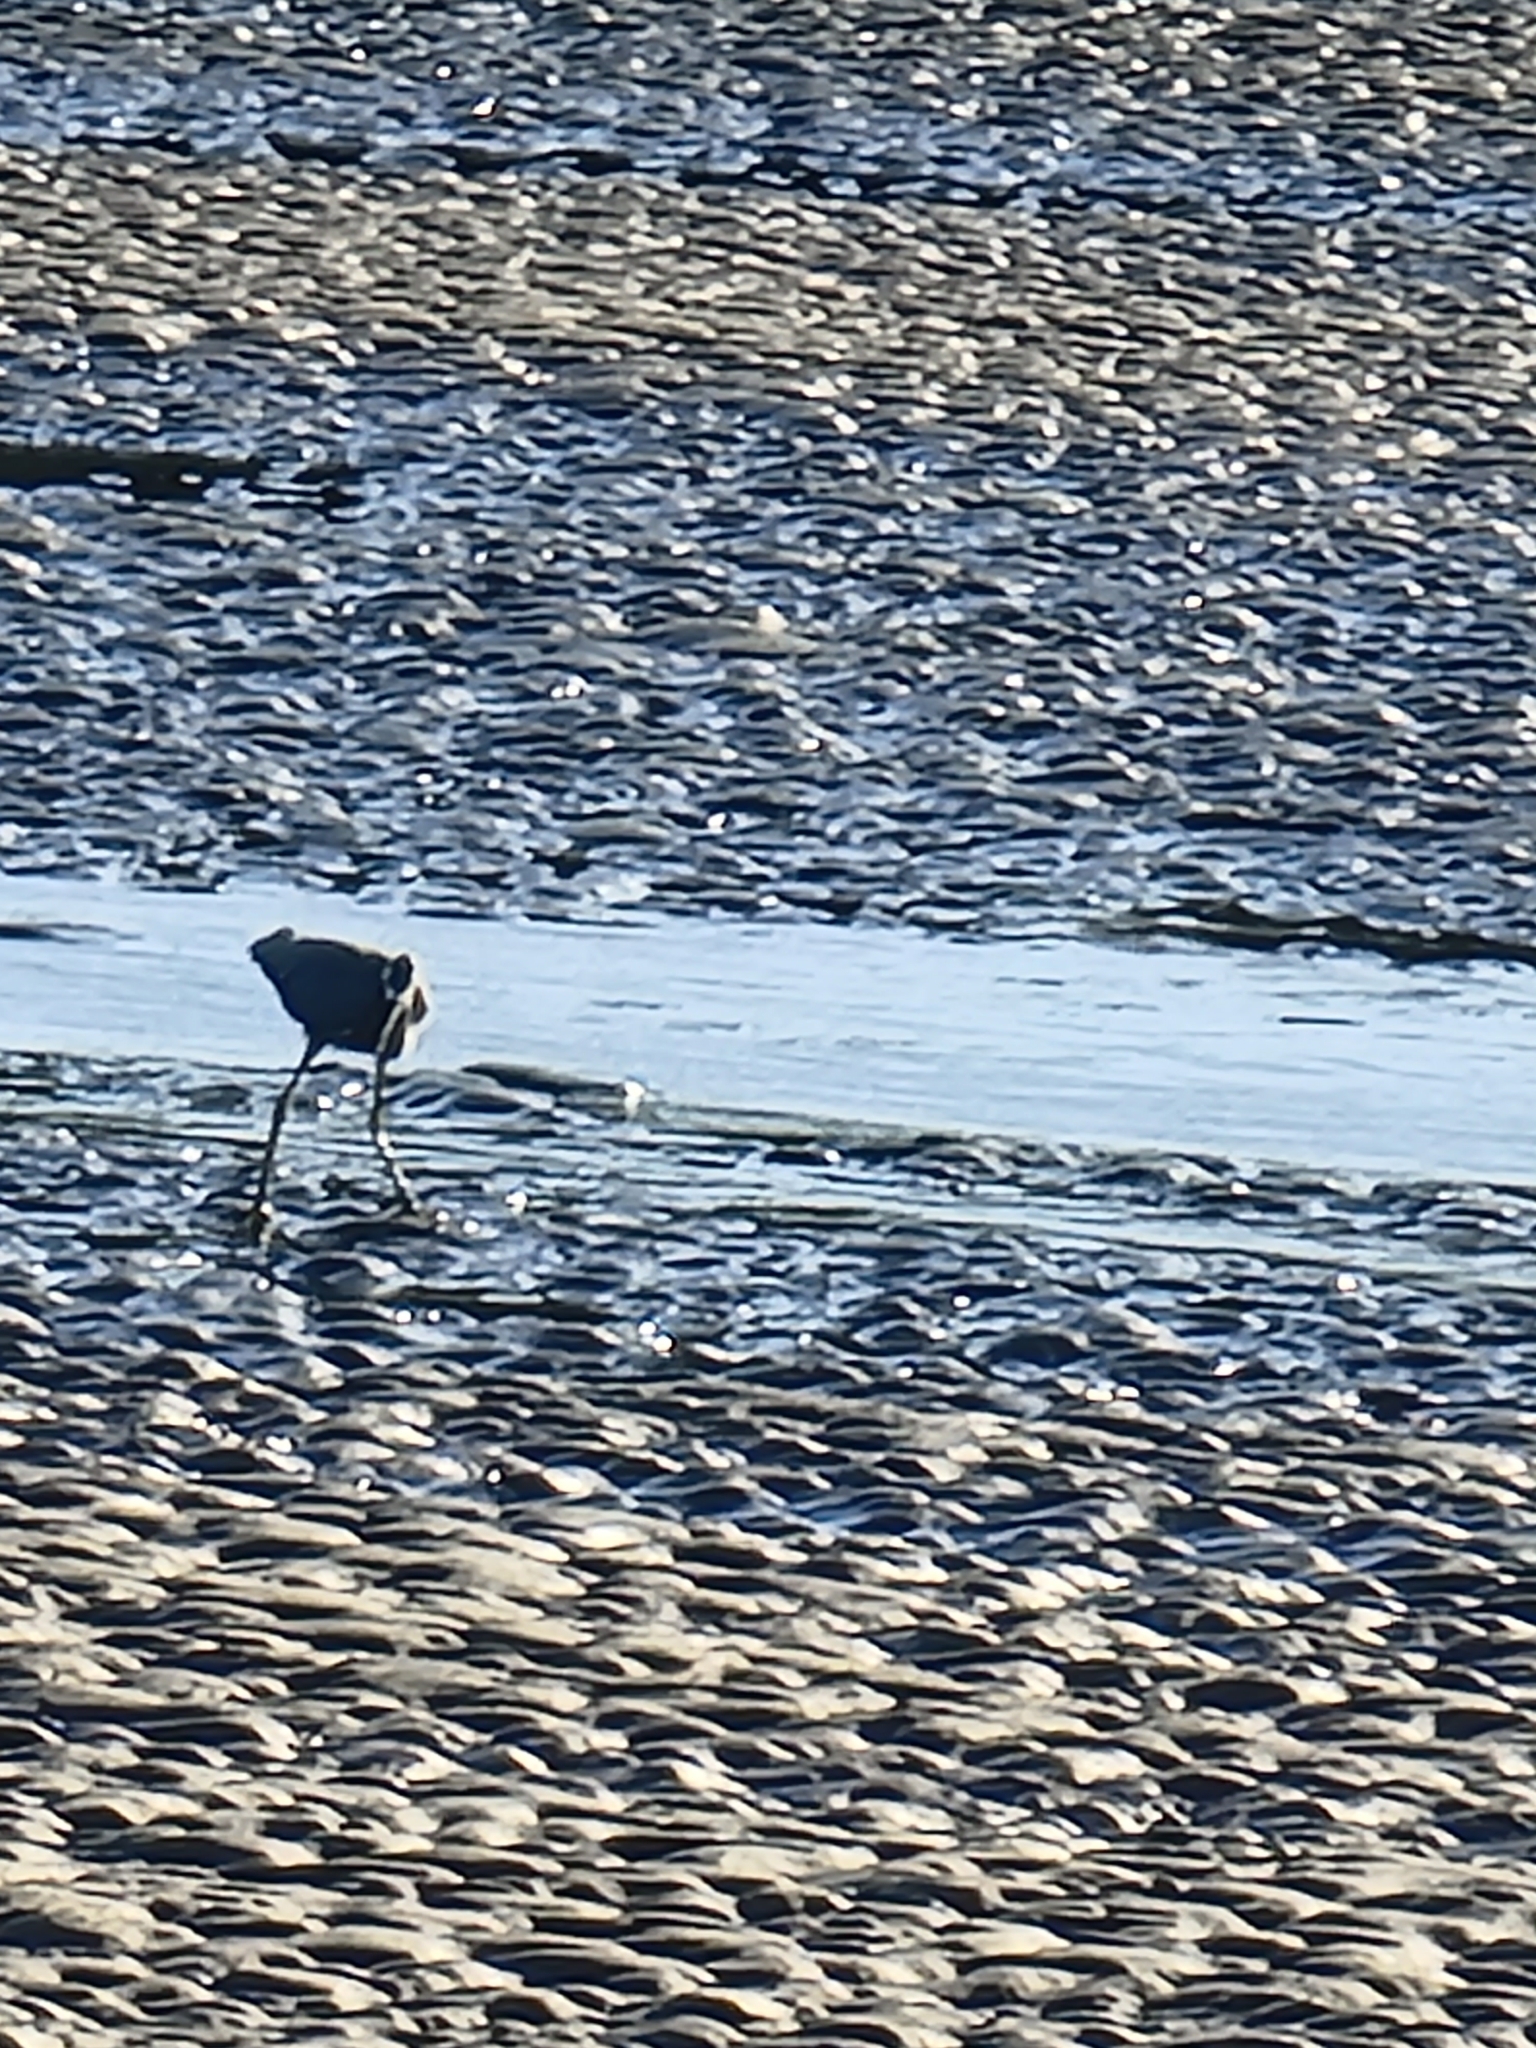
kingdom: Animalia
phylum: Chordata
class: Aves
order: Pelecaniformes
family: Ardeidae
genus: Egretta
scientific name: Egretta novaehollandiae
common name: White-faced heron
